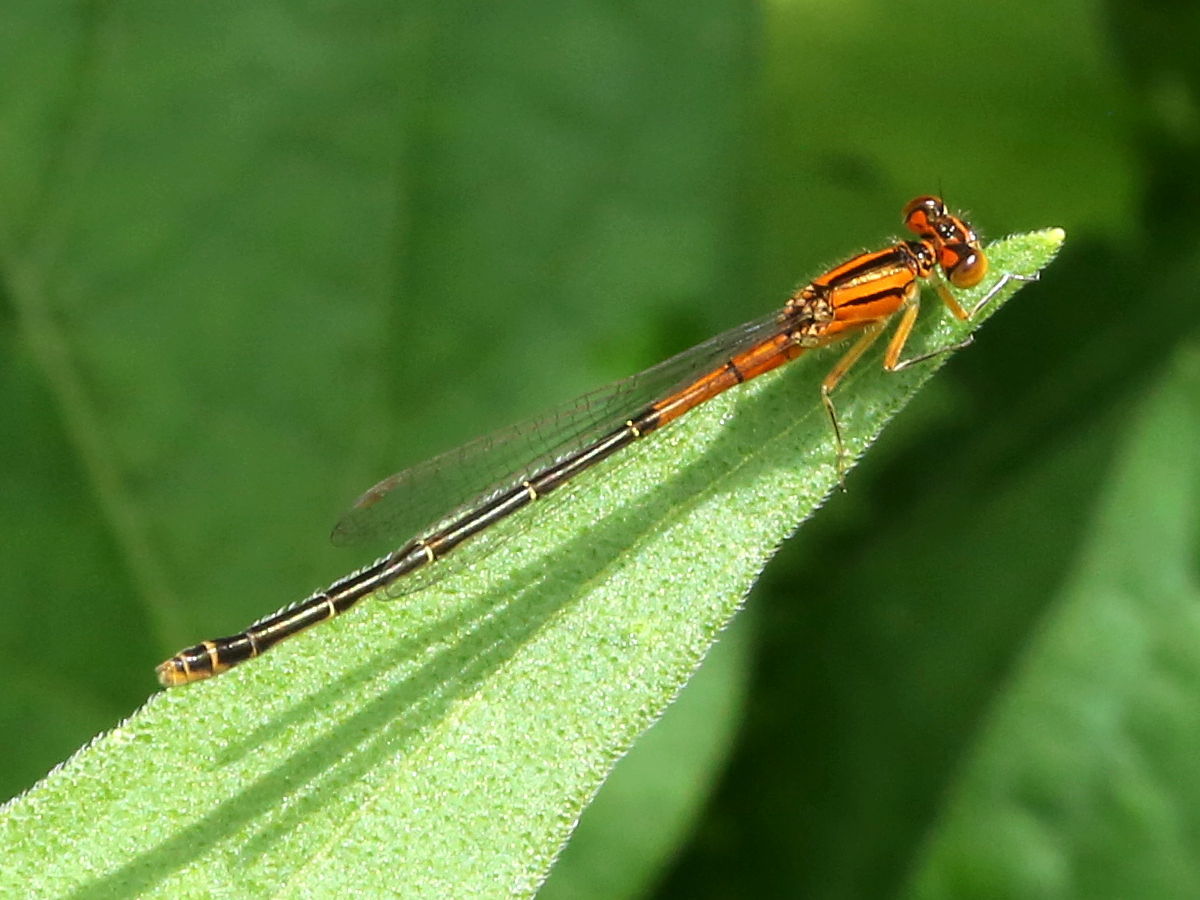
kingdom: Animalia
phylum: Arthropoda
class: Insecta
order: Odonata
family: Coenagrionidae
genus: Ischnura
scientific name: Ischnura verticalis
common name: Eastern forktail
